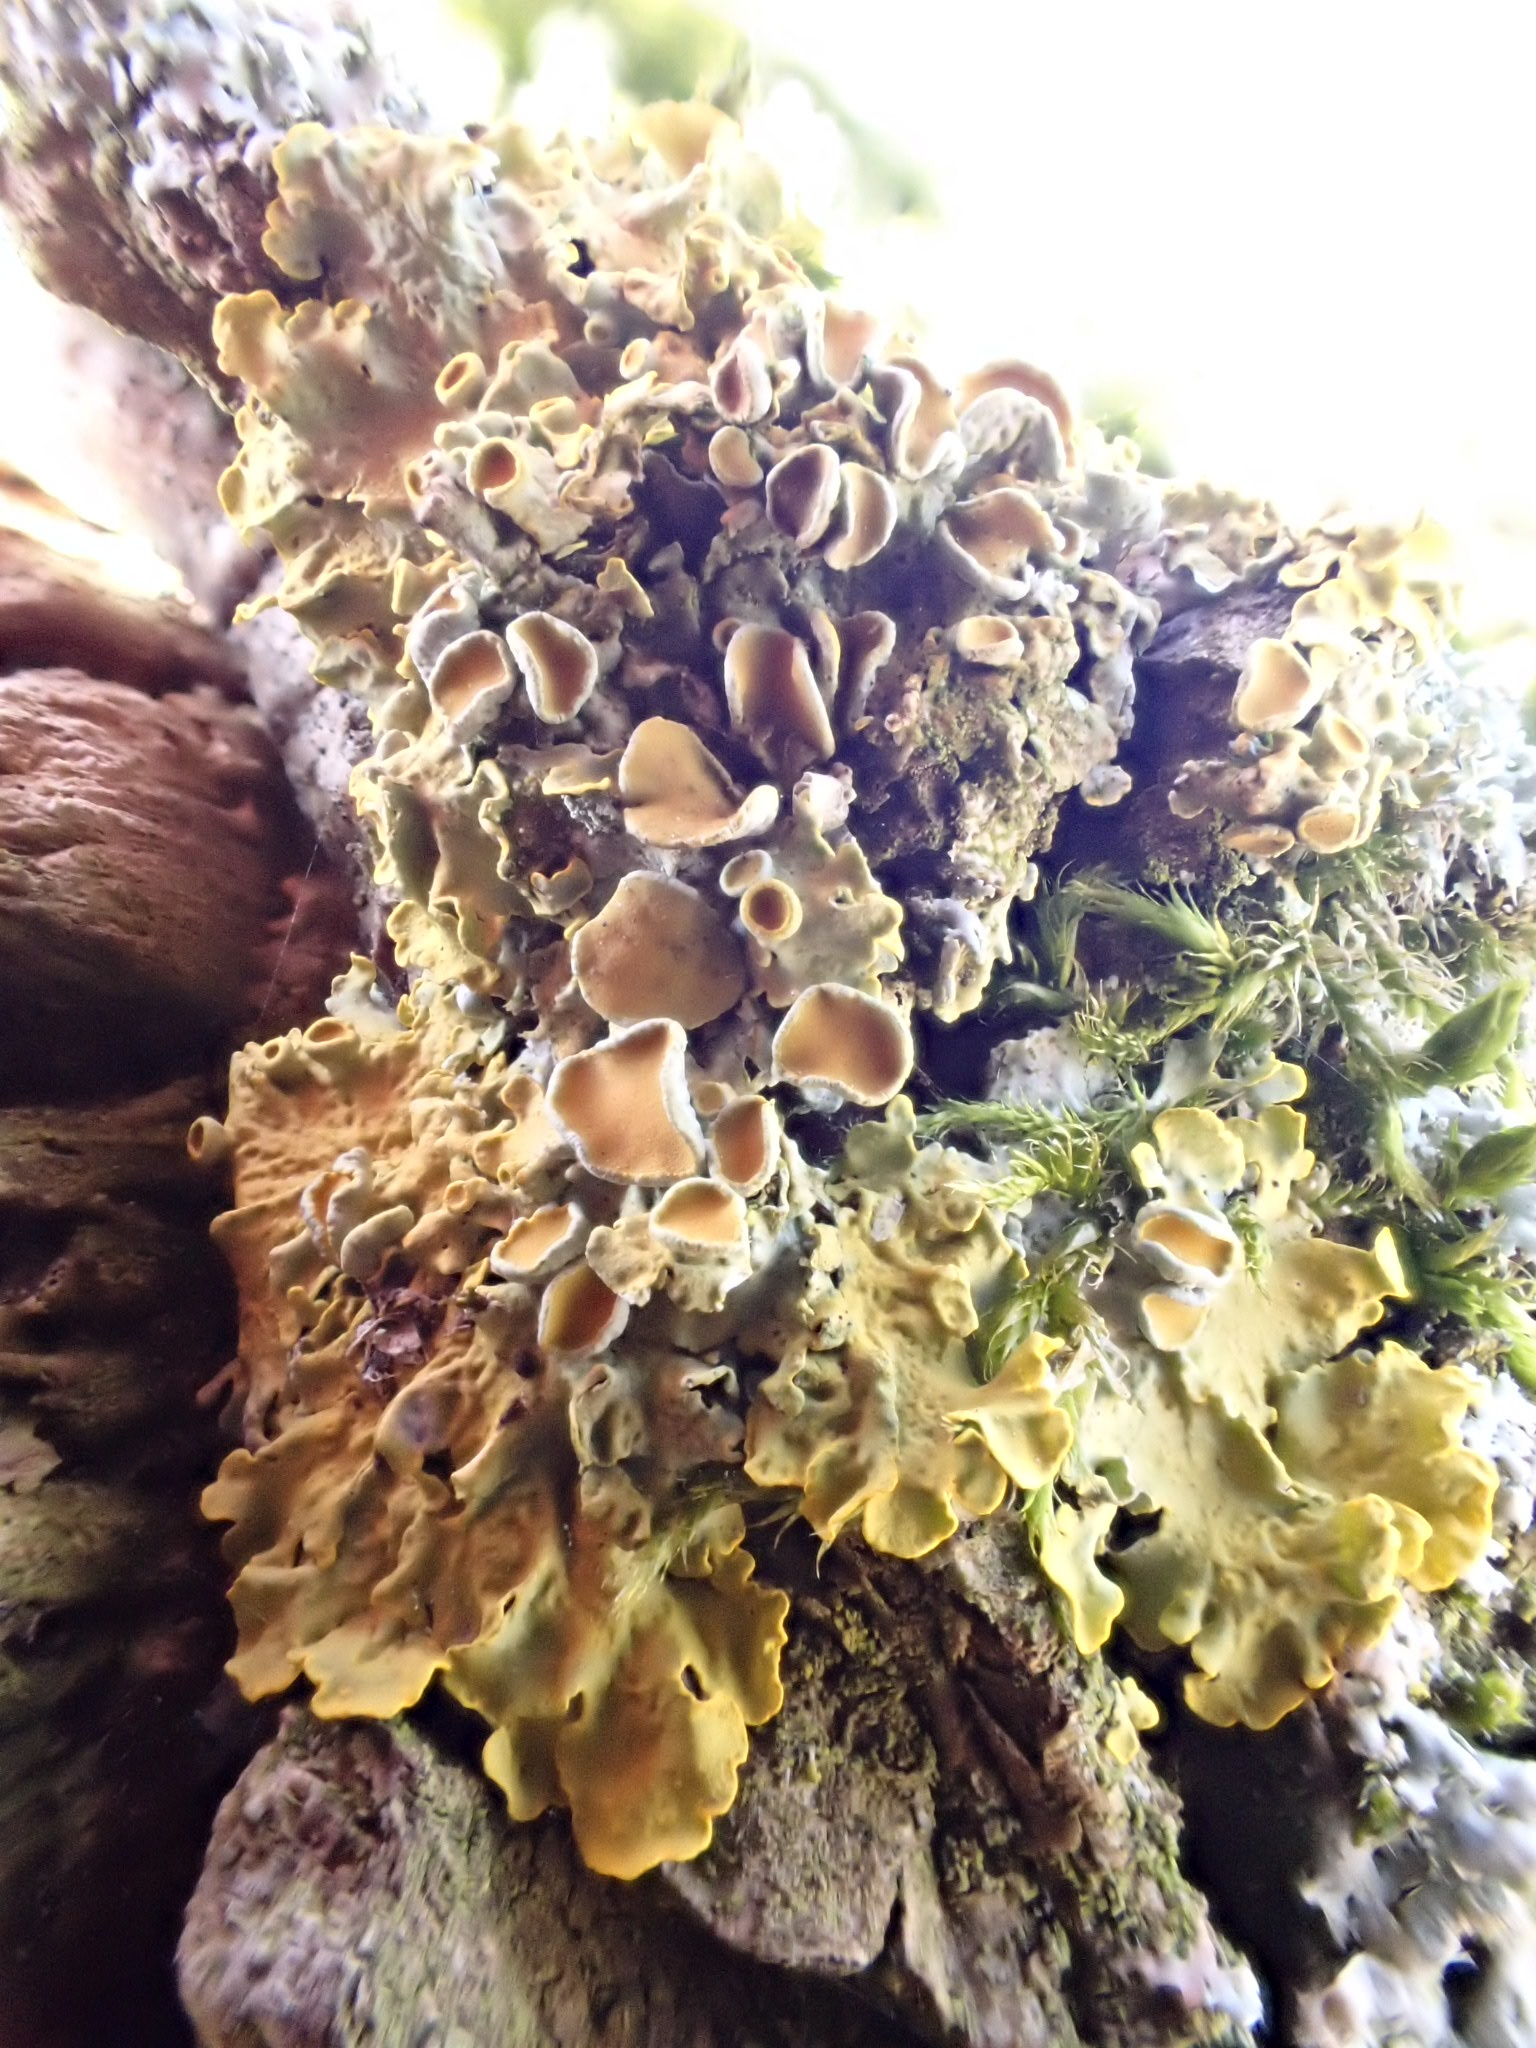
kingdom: Fungi
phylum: Ascomycota
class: Lecanoromycetes
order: Teloschistales
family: Teloschistaceae
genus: Xanthoria
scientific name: Xanthoria parietina
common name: Common orange lichen
